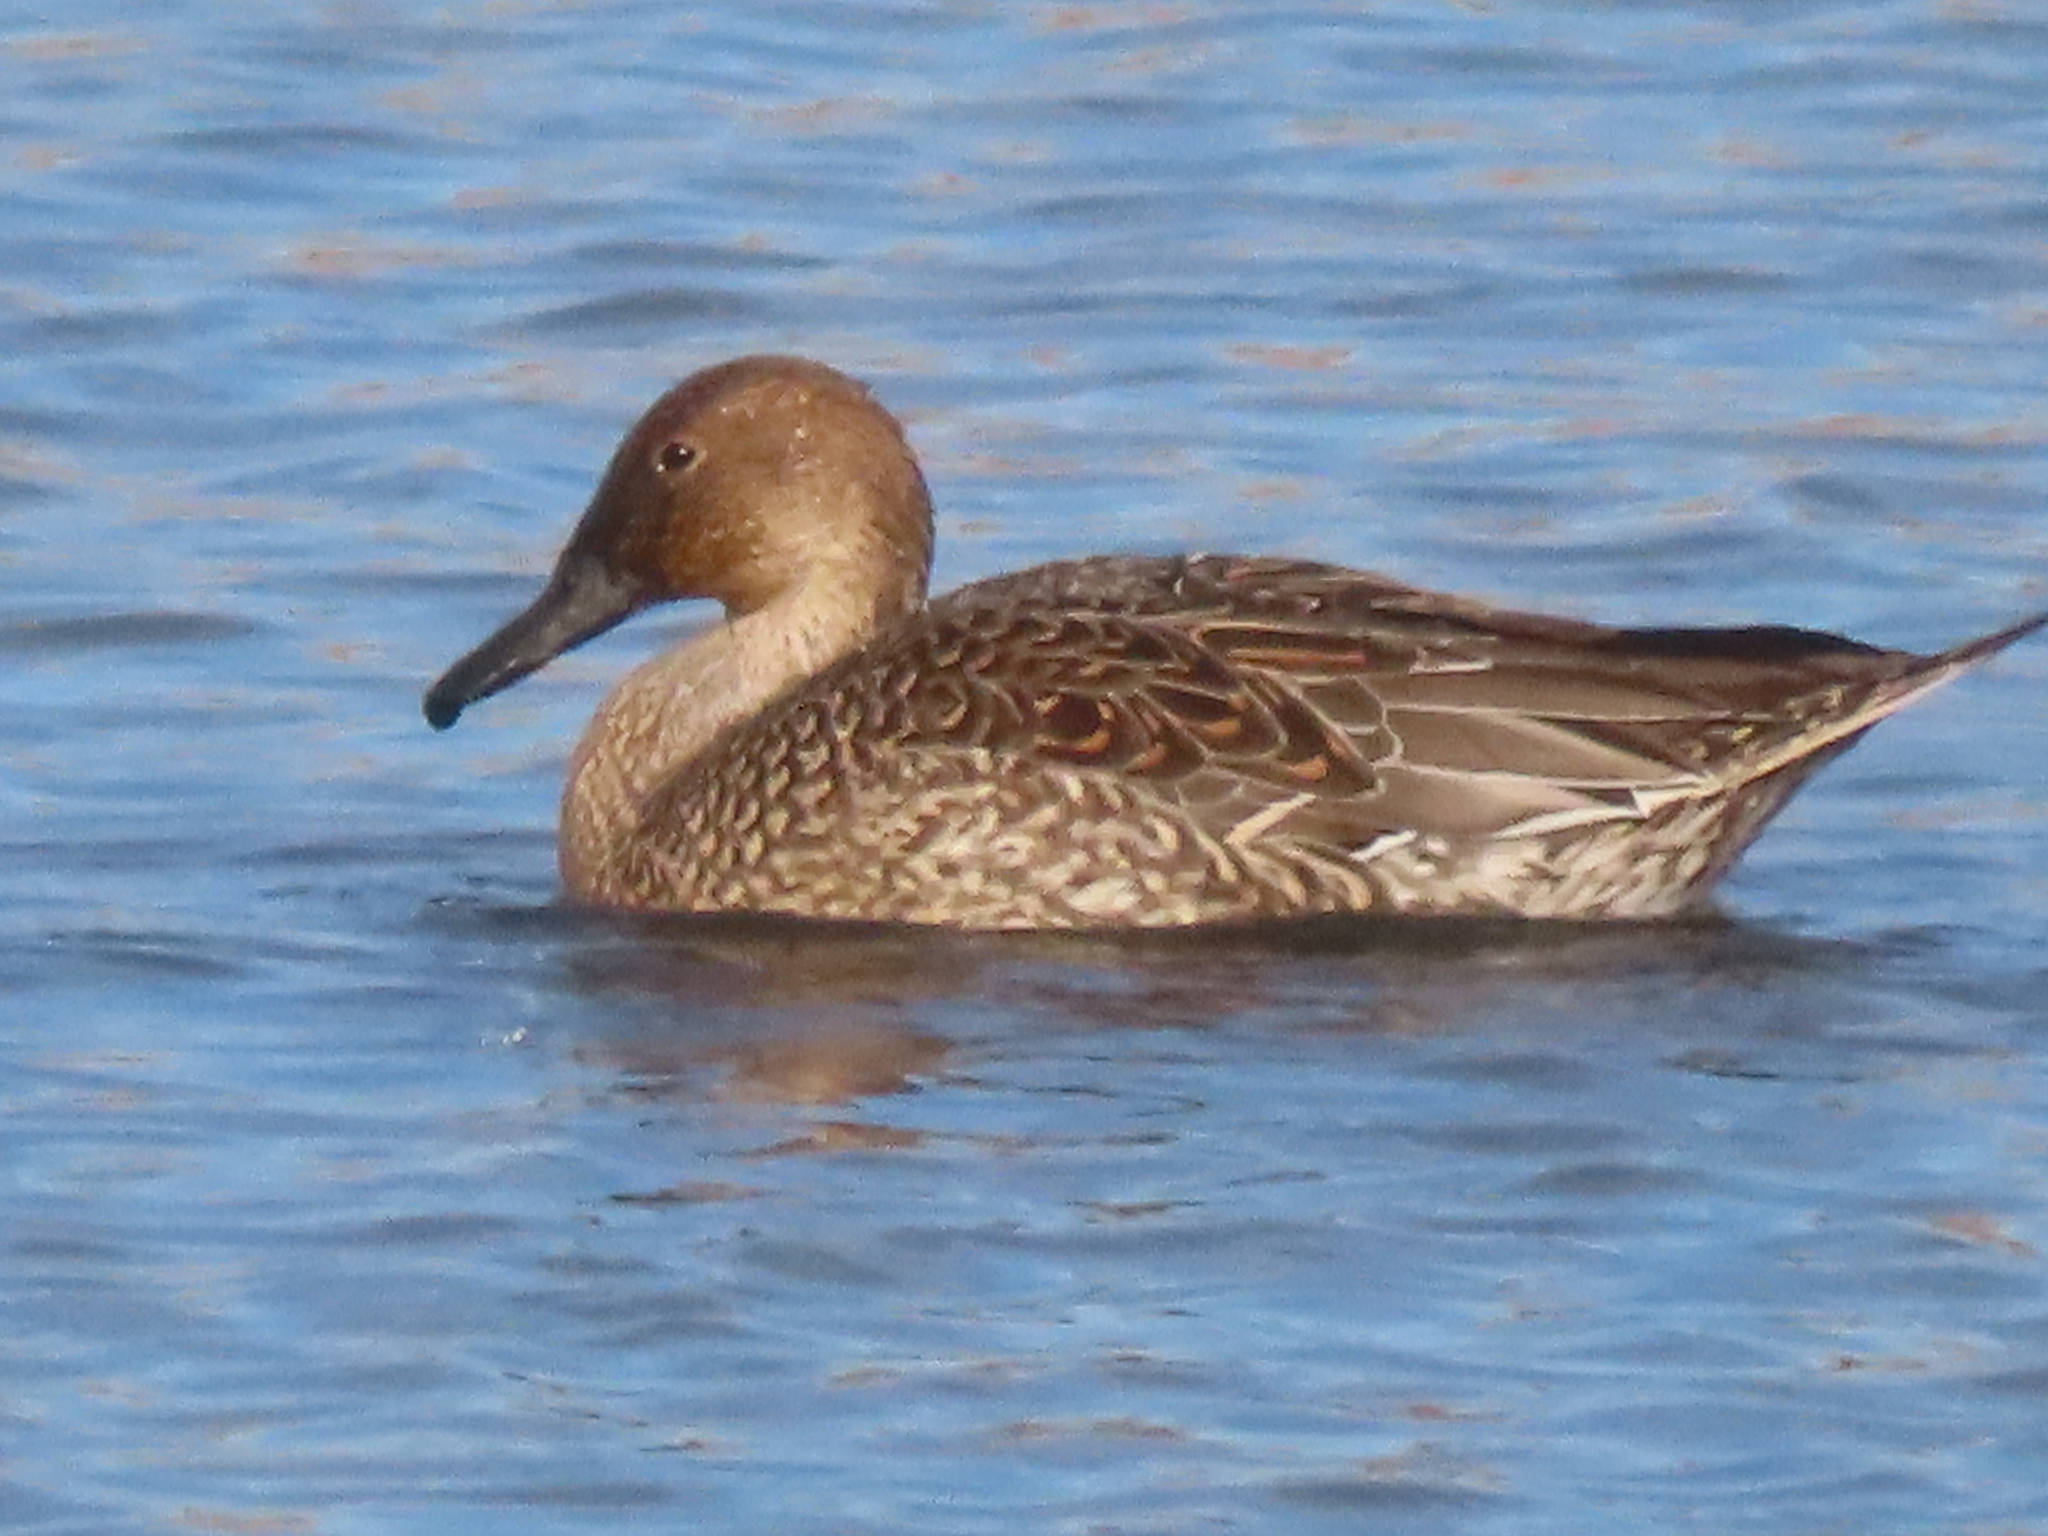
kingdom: Animalia
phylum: Chordata
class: Aves
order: Anseriformes
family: Anatidae
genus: Anas
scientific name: Anas acuta
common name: Northern pintail
